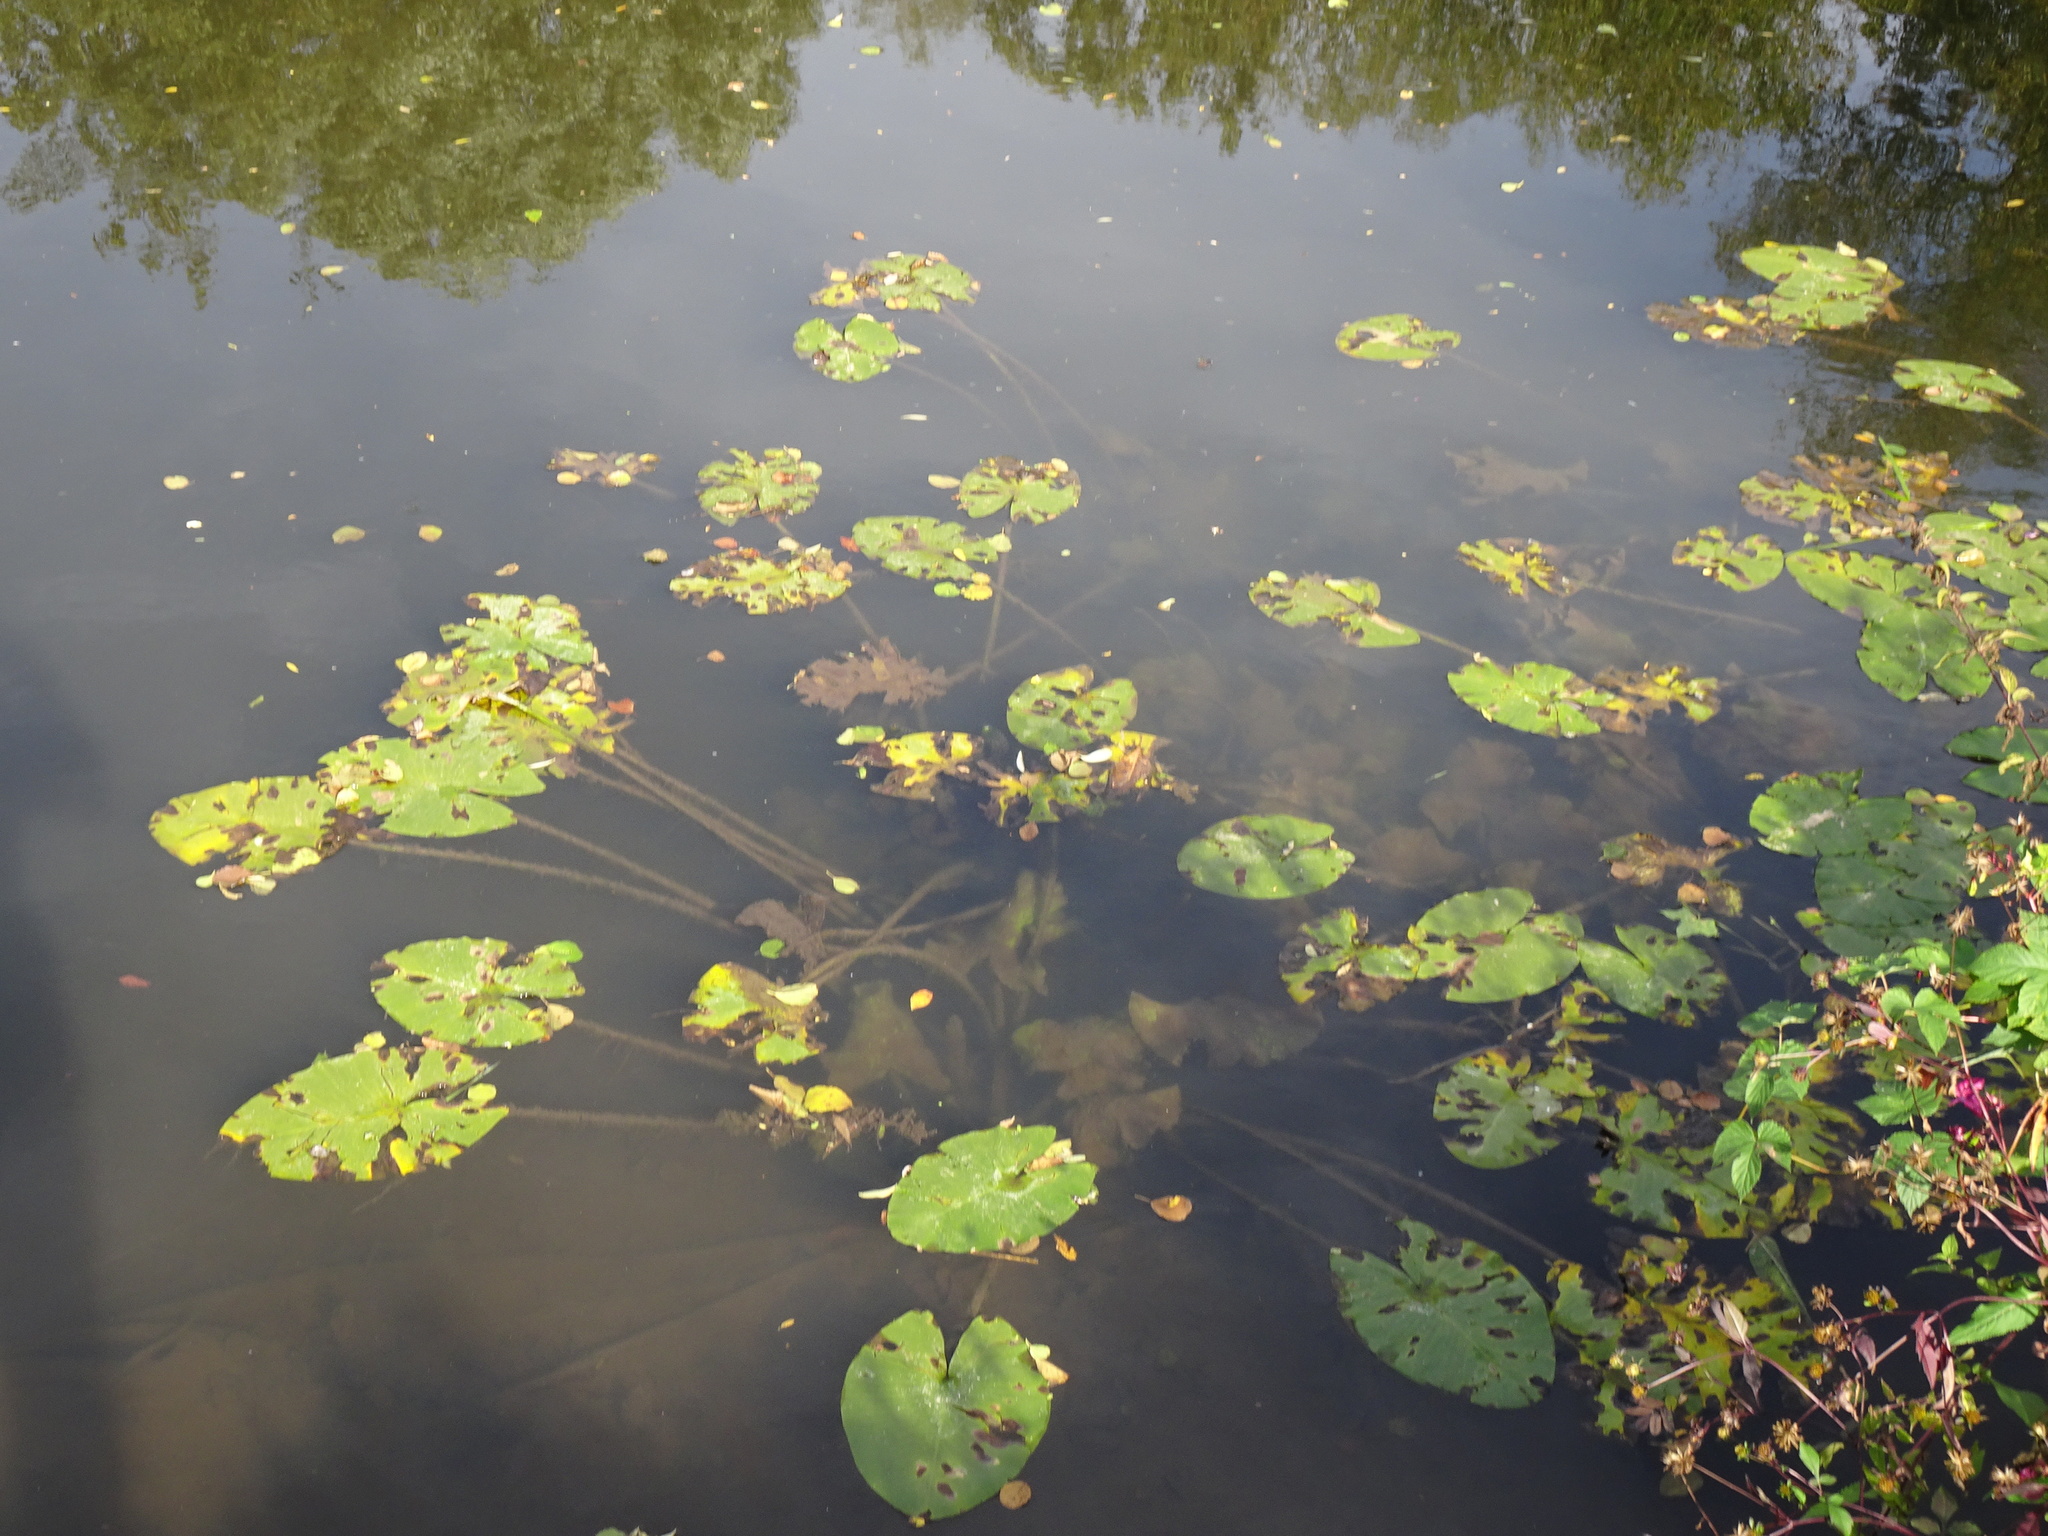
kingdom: Plantae
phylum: Tracheophyta
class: Magnoliopsida
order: Nymphaeales
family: Nymphaeaceae
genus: Nuphar
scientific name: Nuphar lutea
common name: Yellow water-lily
